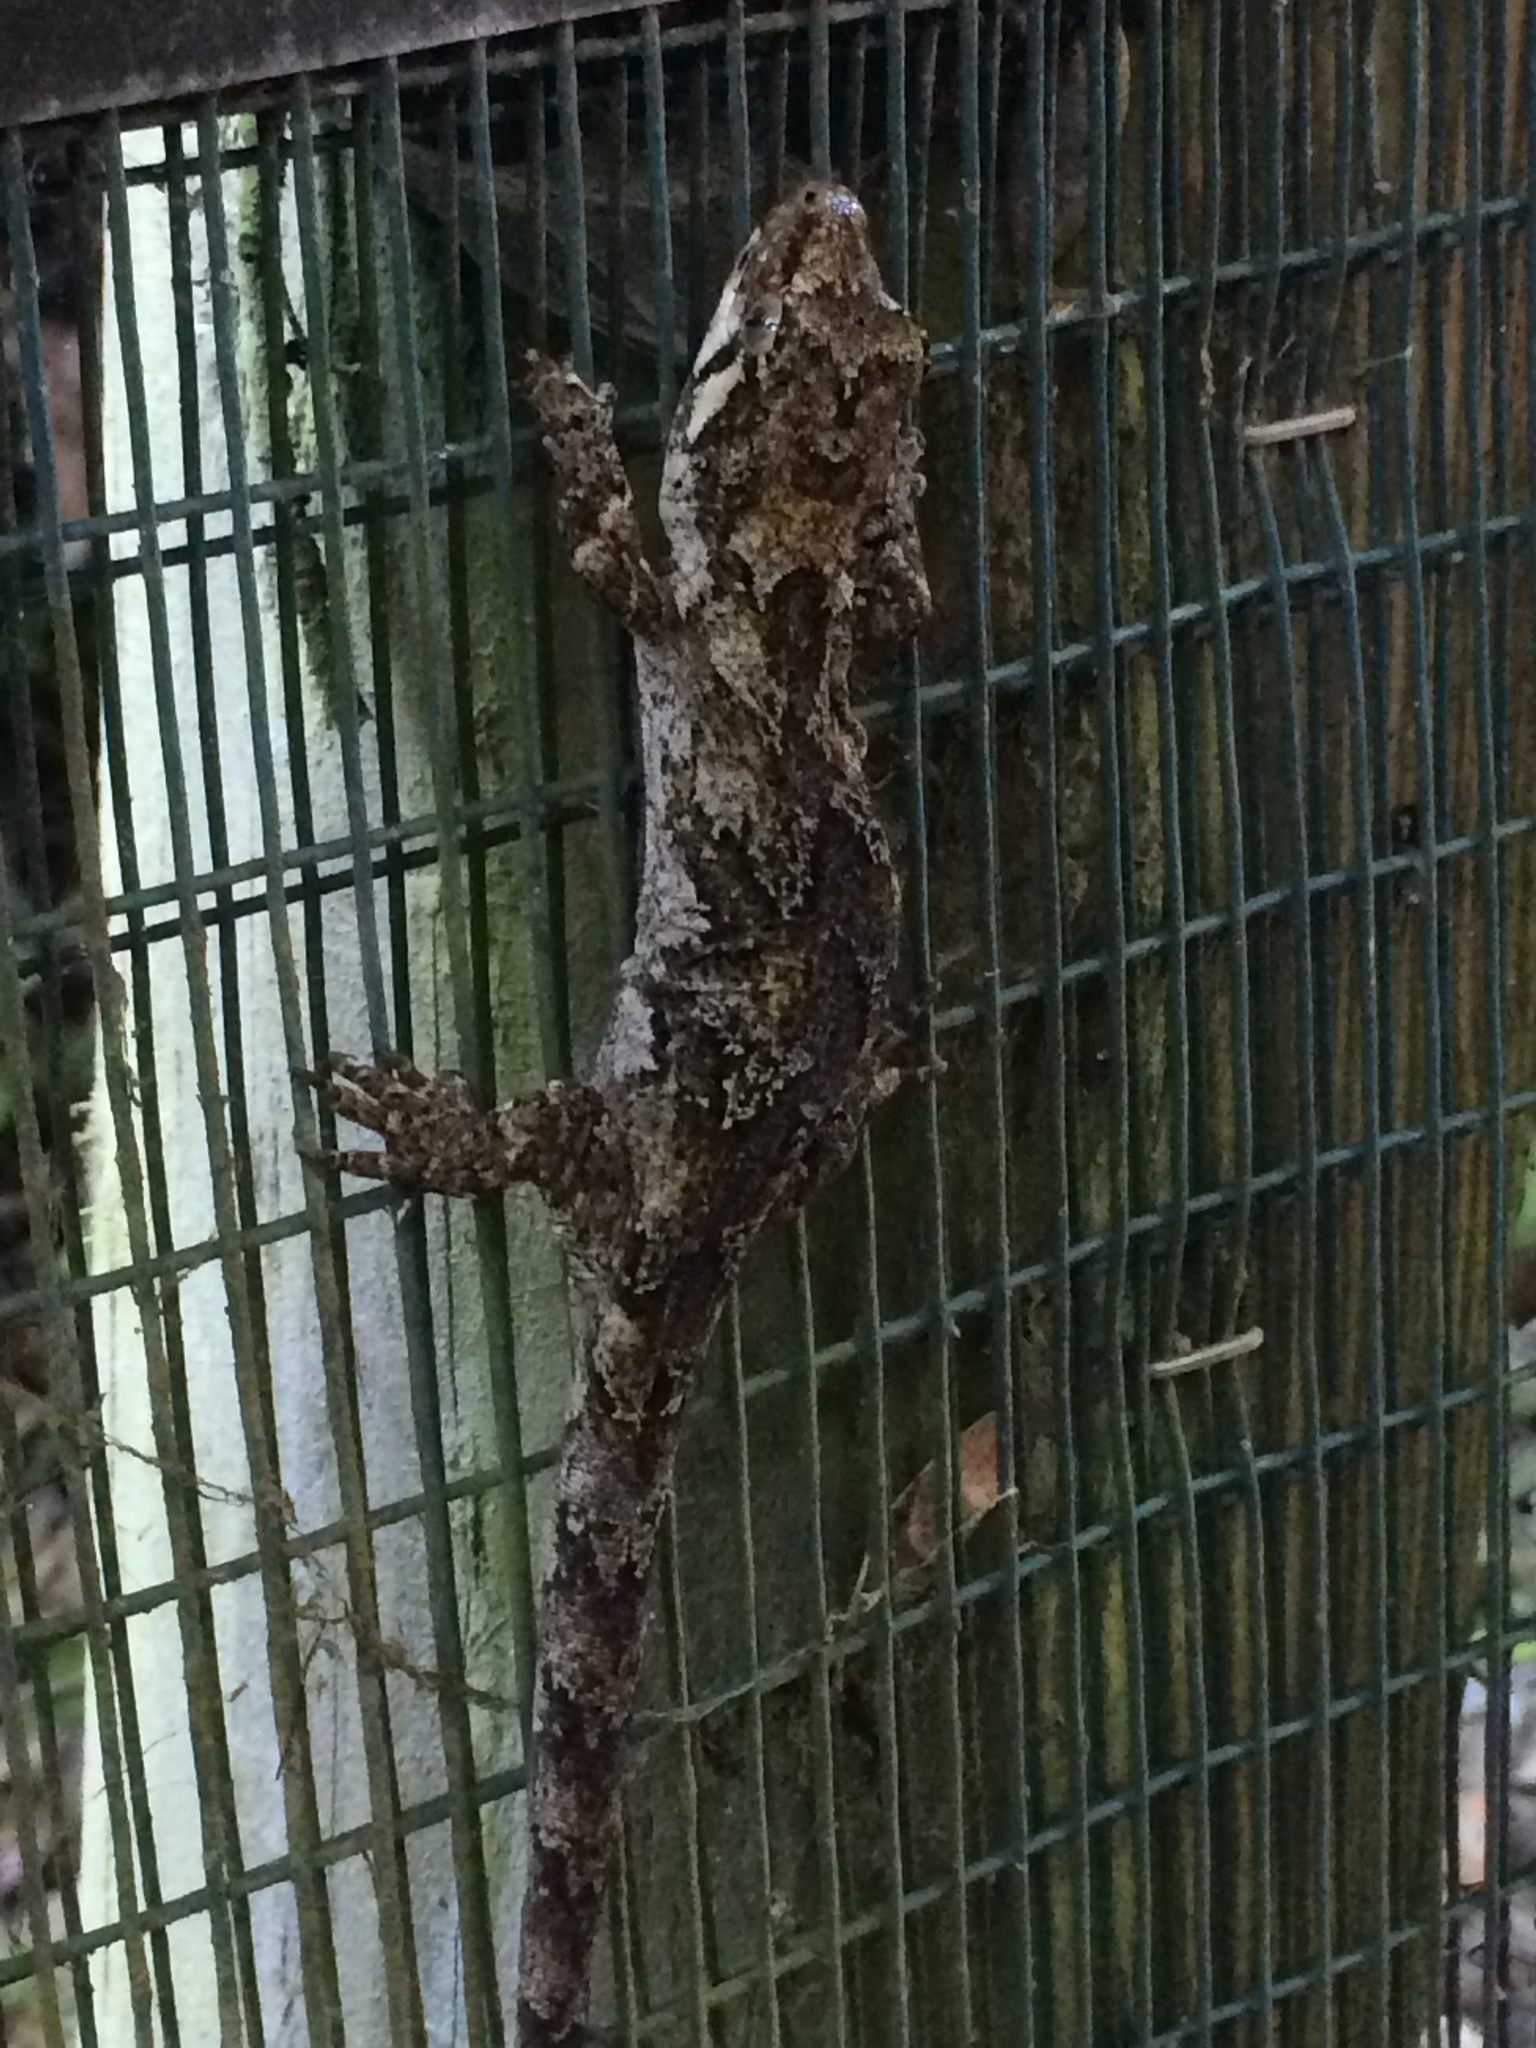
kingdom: Animalia
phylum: Chordata
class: Squamata
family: Diplodactylidae
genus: Mokopirirakau
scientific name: Mokopirirakau granulatus
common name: Forest gecko
